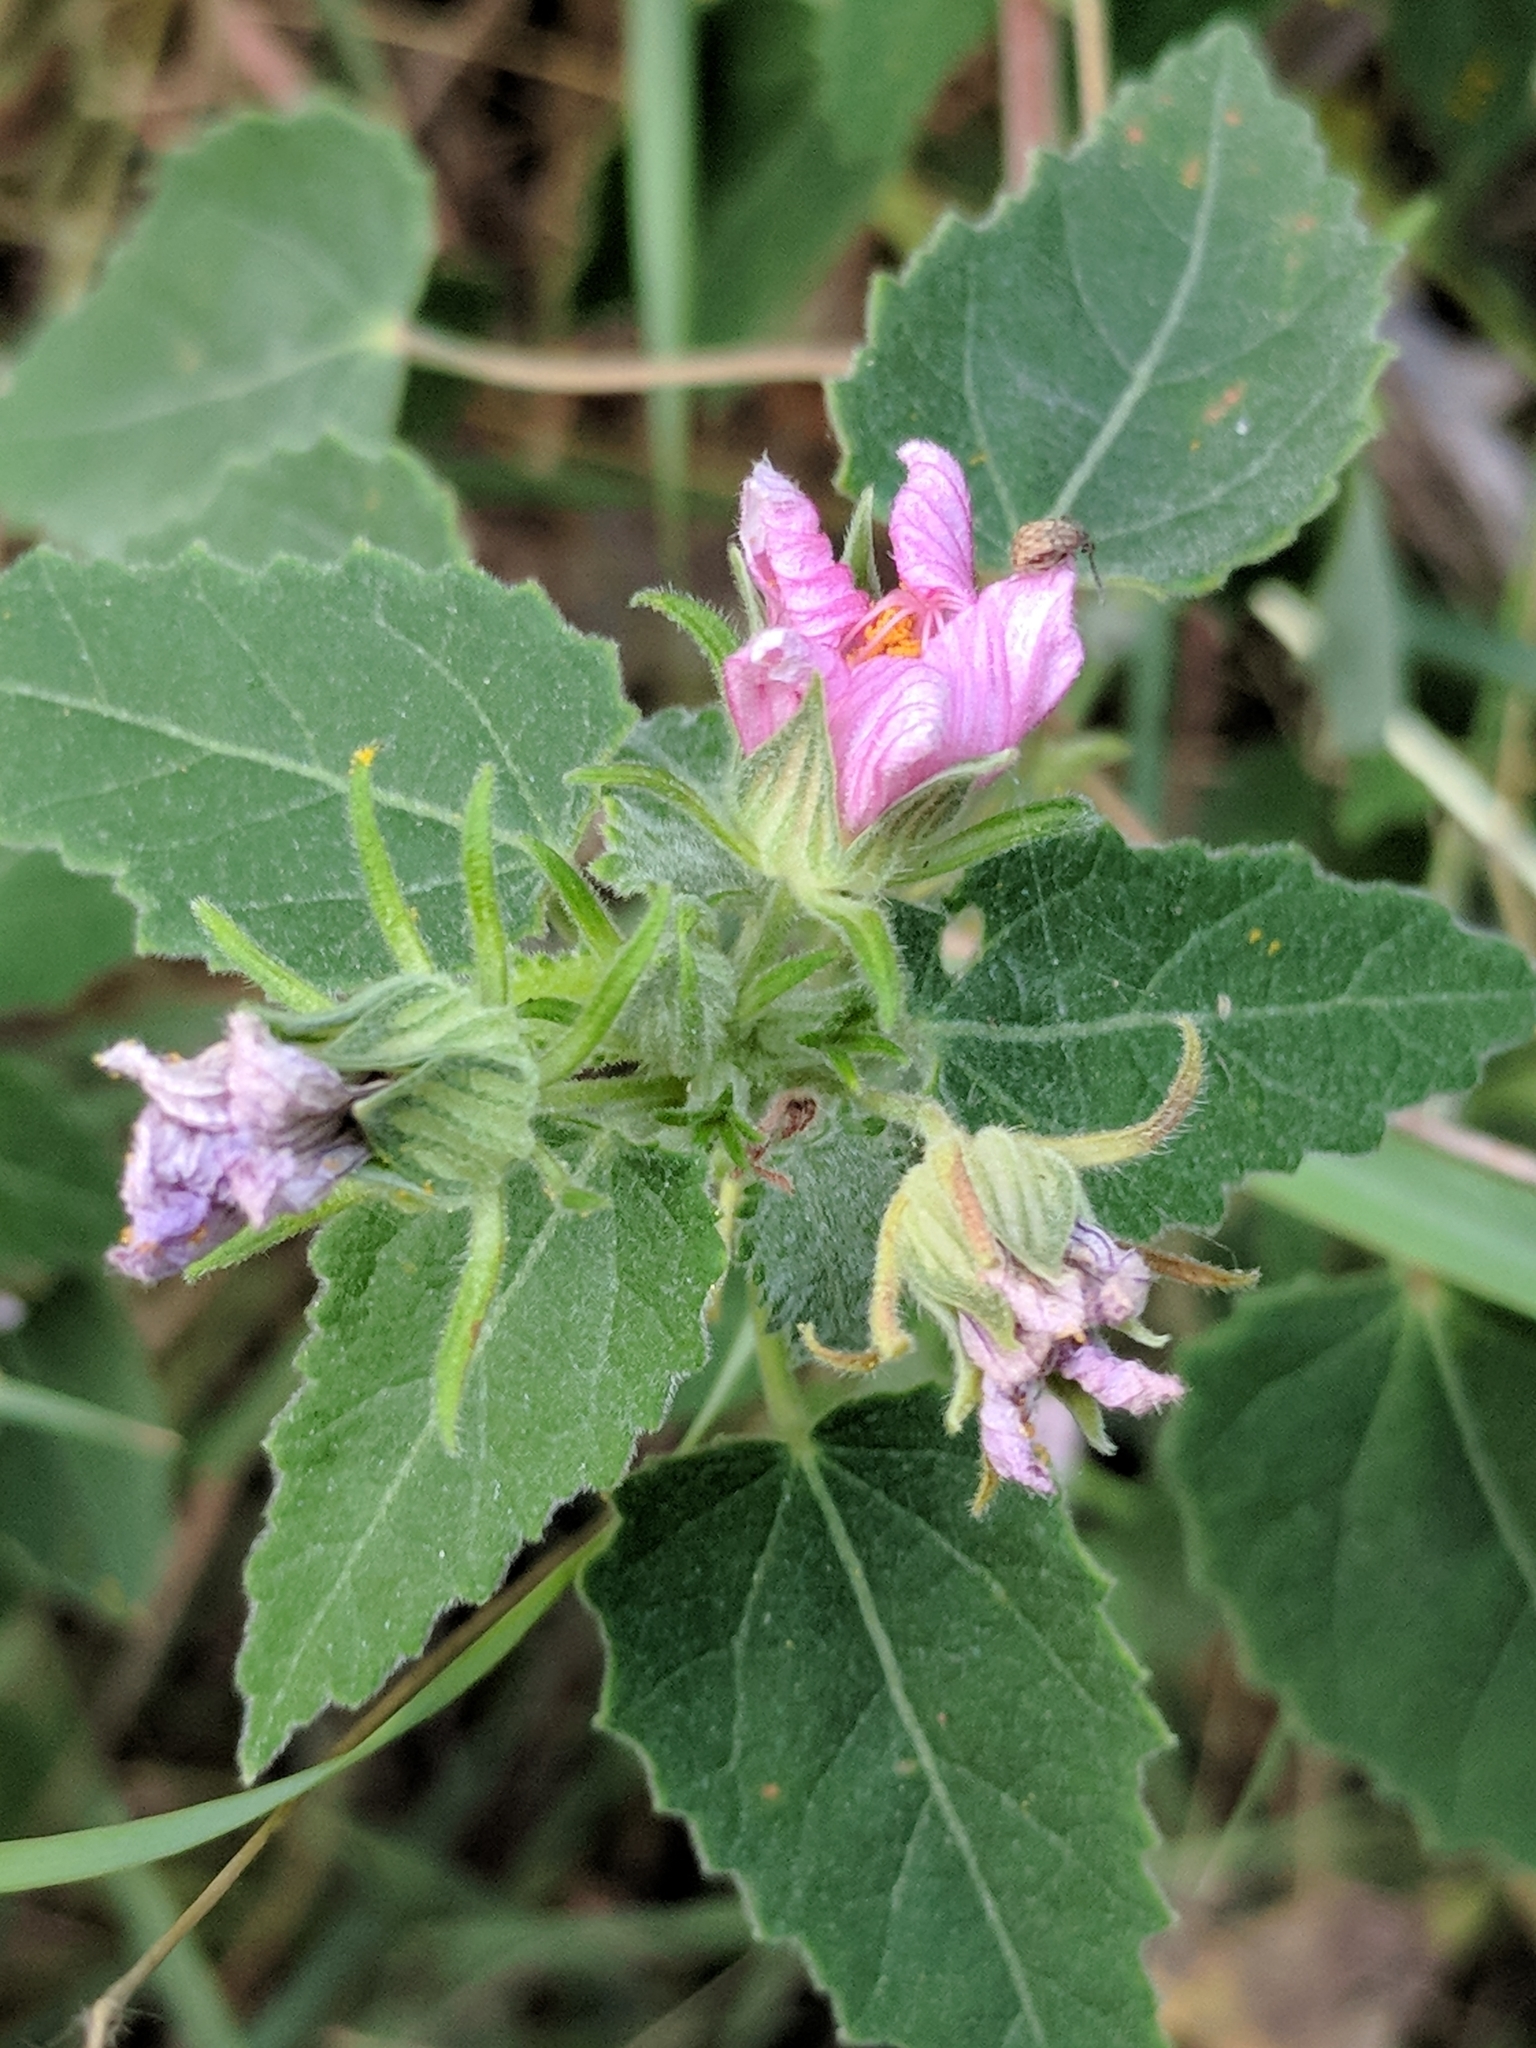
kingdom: Plantae
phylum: Tracheophyta
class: Magnoliopsida
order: Malvales
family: Malvaceae
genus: Pavonia
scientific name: Pavonia lasiopetala
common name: Texas swamp-mallow
